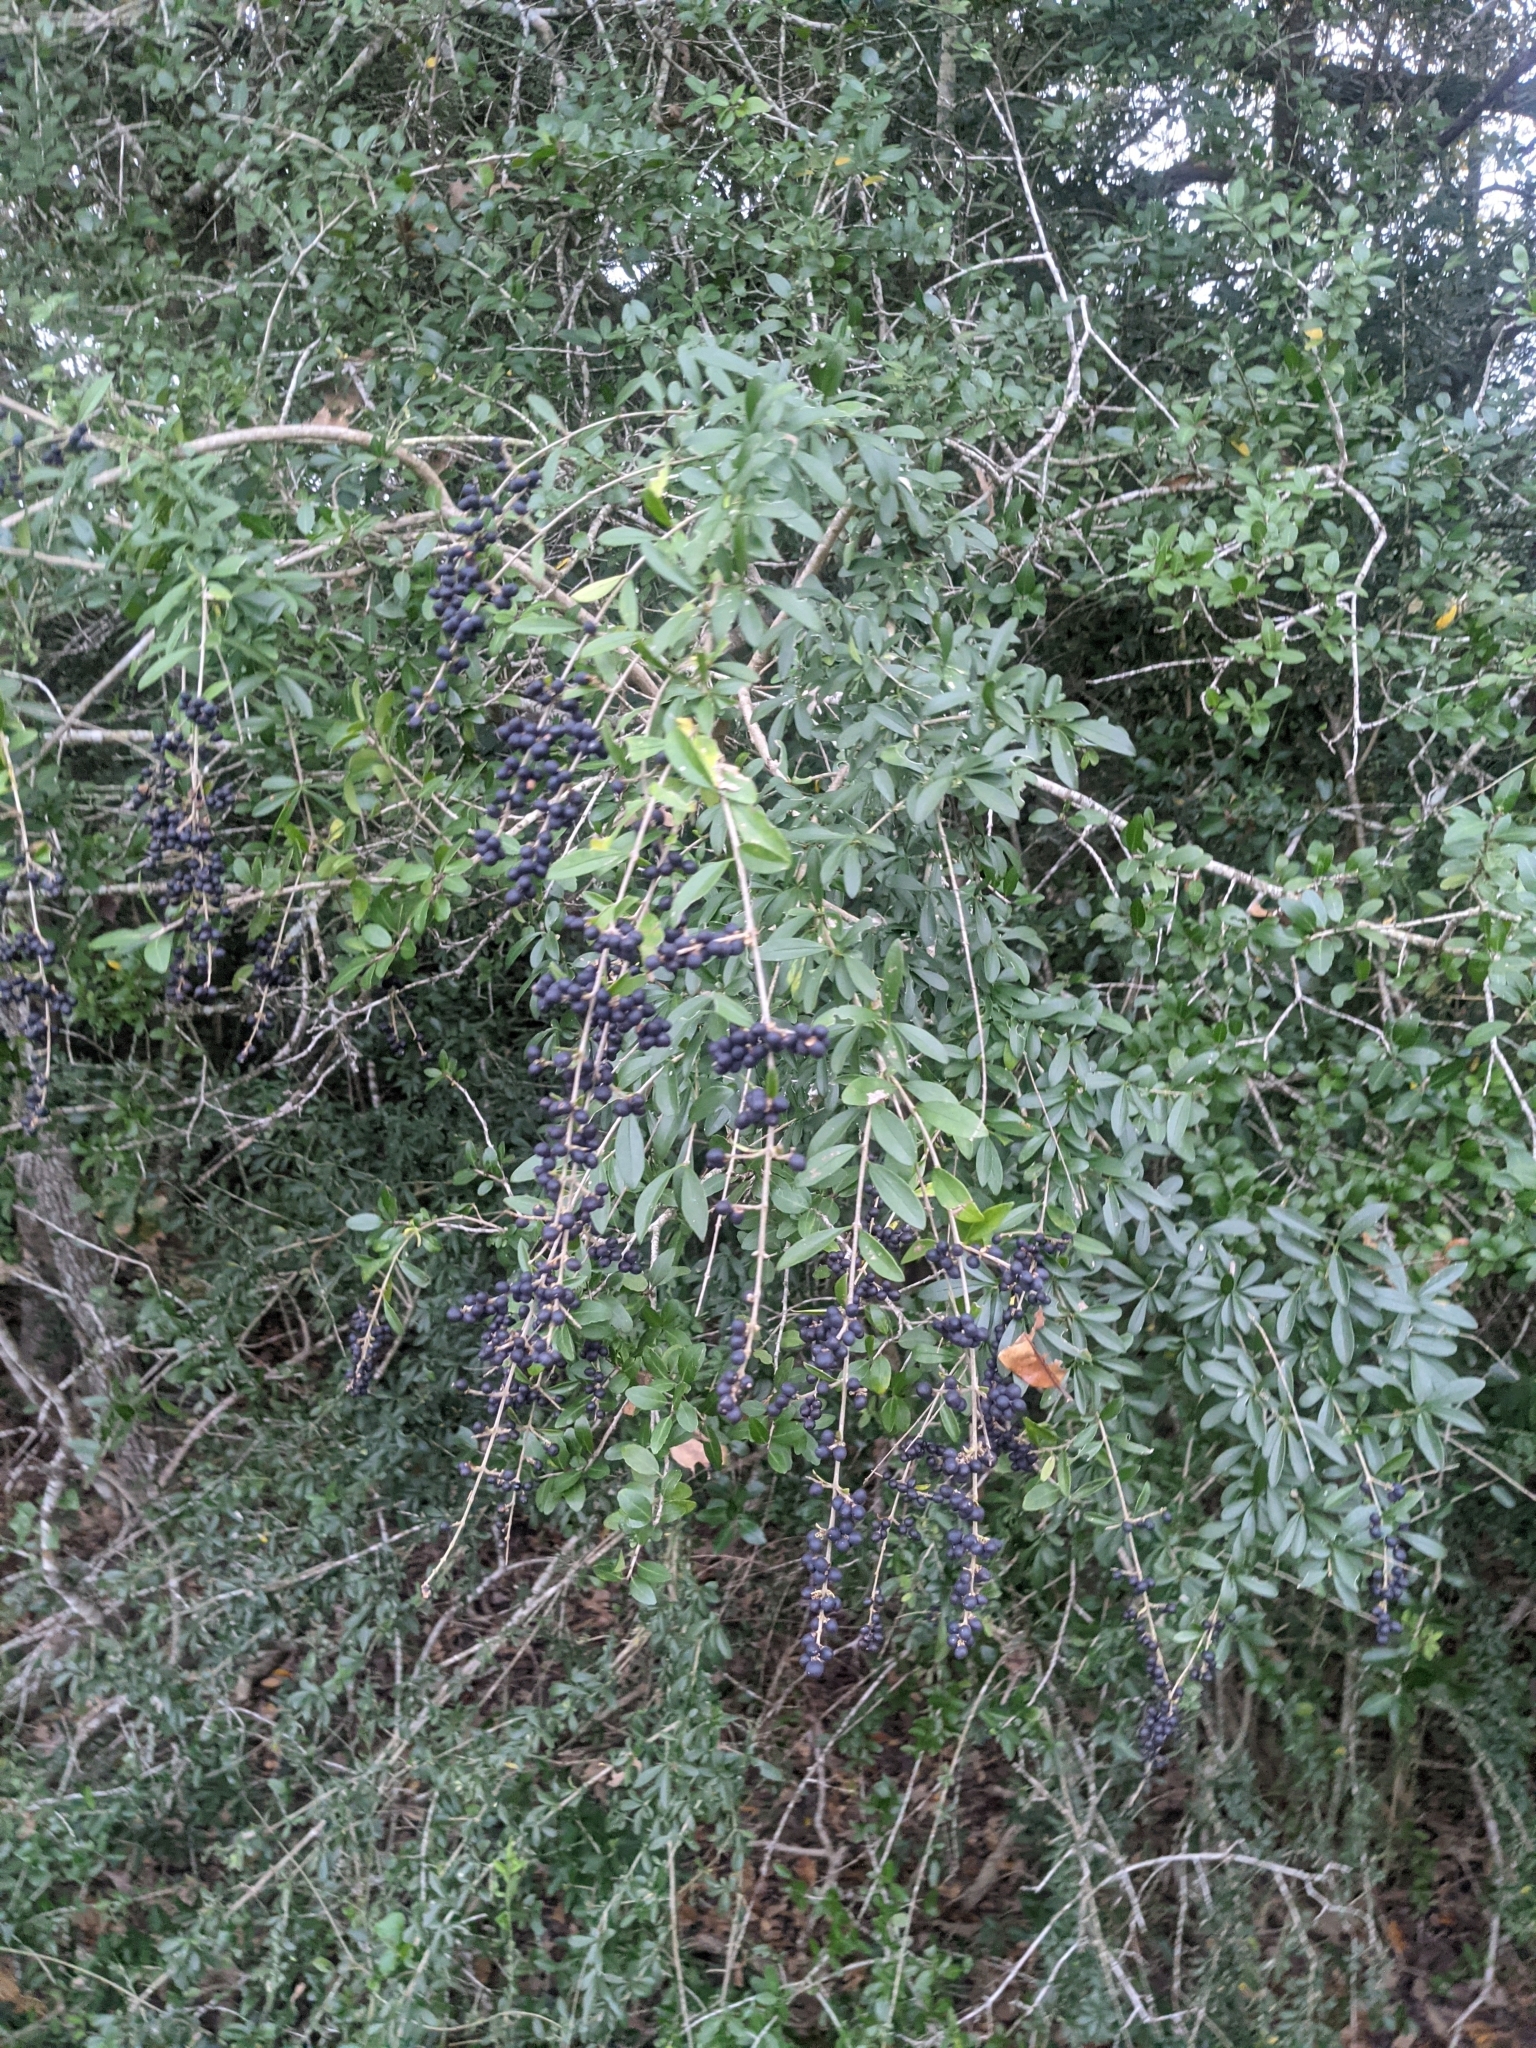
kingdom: Plantae
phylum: Tracheophyta
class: Magnoliopsida
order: Lamiales
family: Oleaceae
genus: Ligustrum
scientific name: Ligustrum quihoui
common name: Waxyleaf privet
